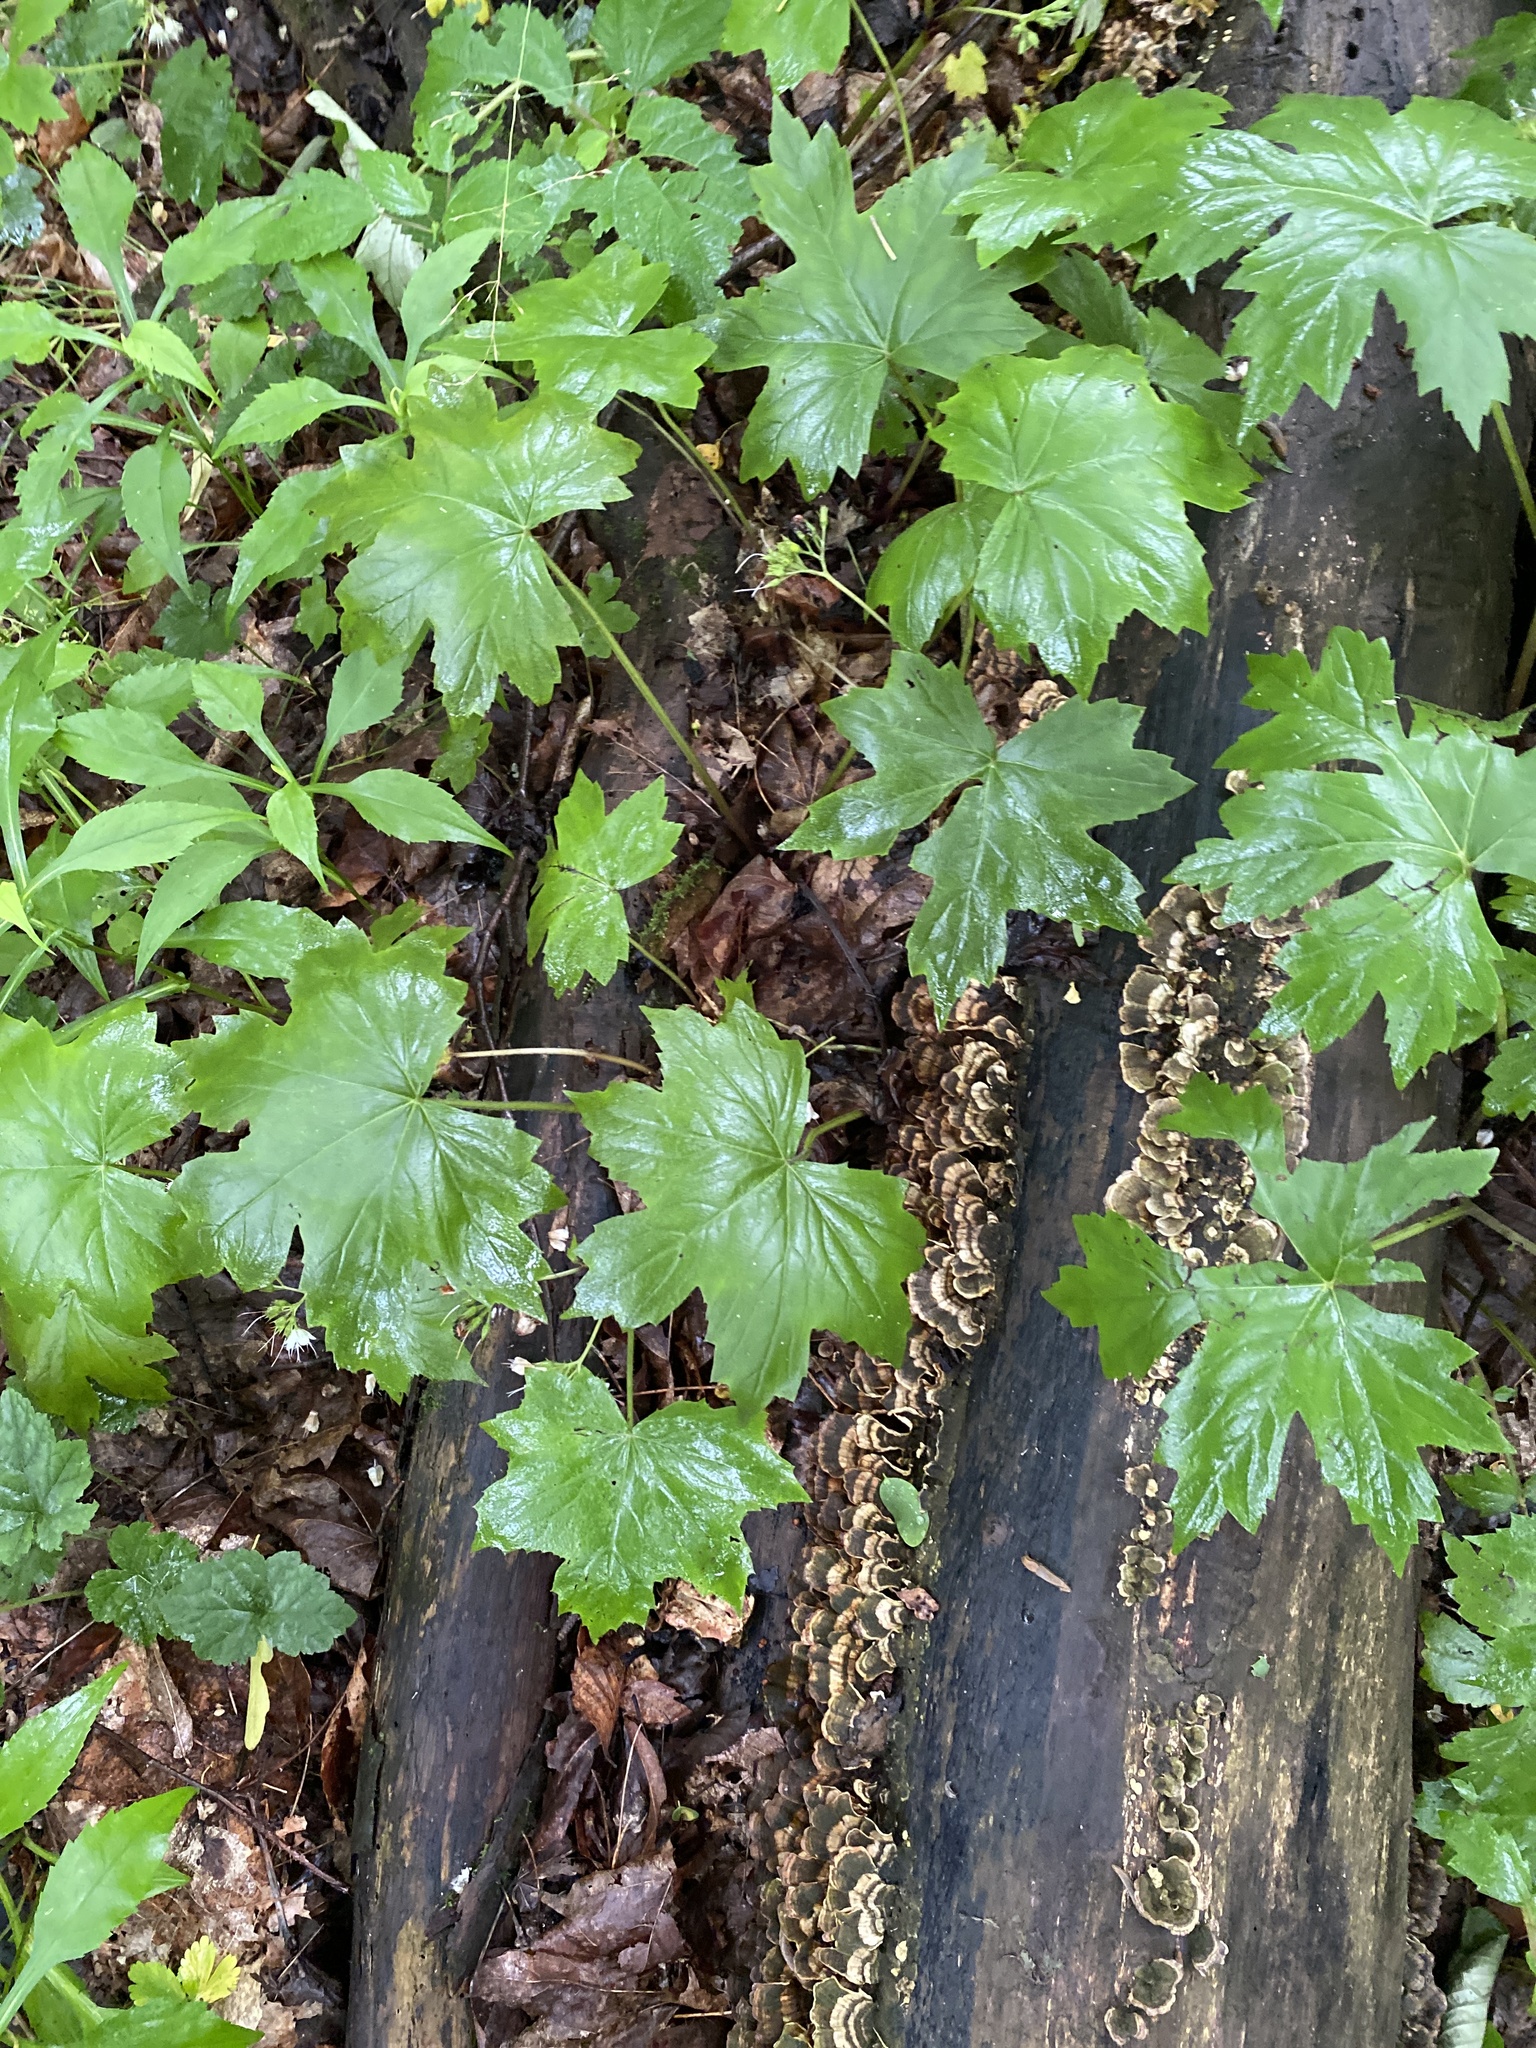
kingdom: Plantae
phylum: Tracheophyta
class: Magnoliopsida
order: Boraginales
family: Hydrophyllaceae
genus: Hydrophyllum
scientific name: Hydrophyllum canadense
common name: Canada waterleaf
